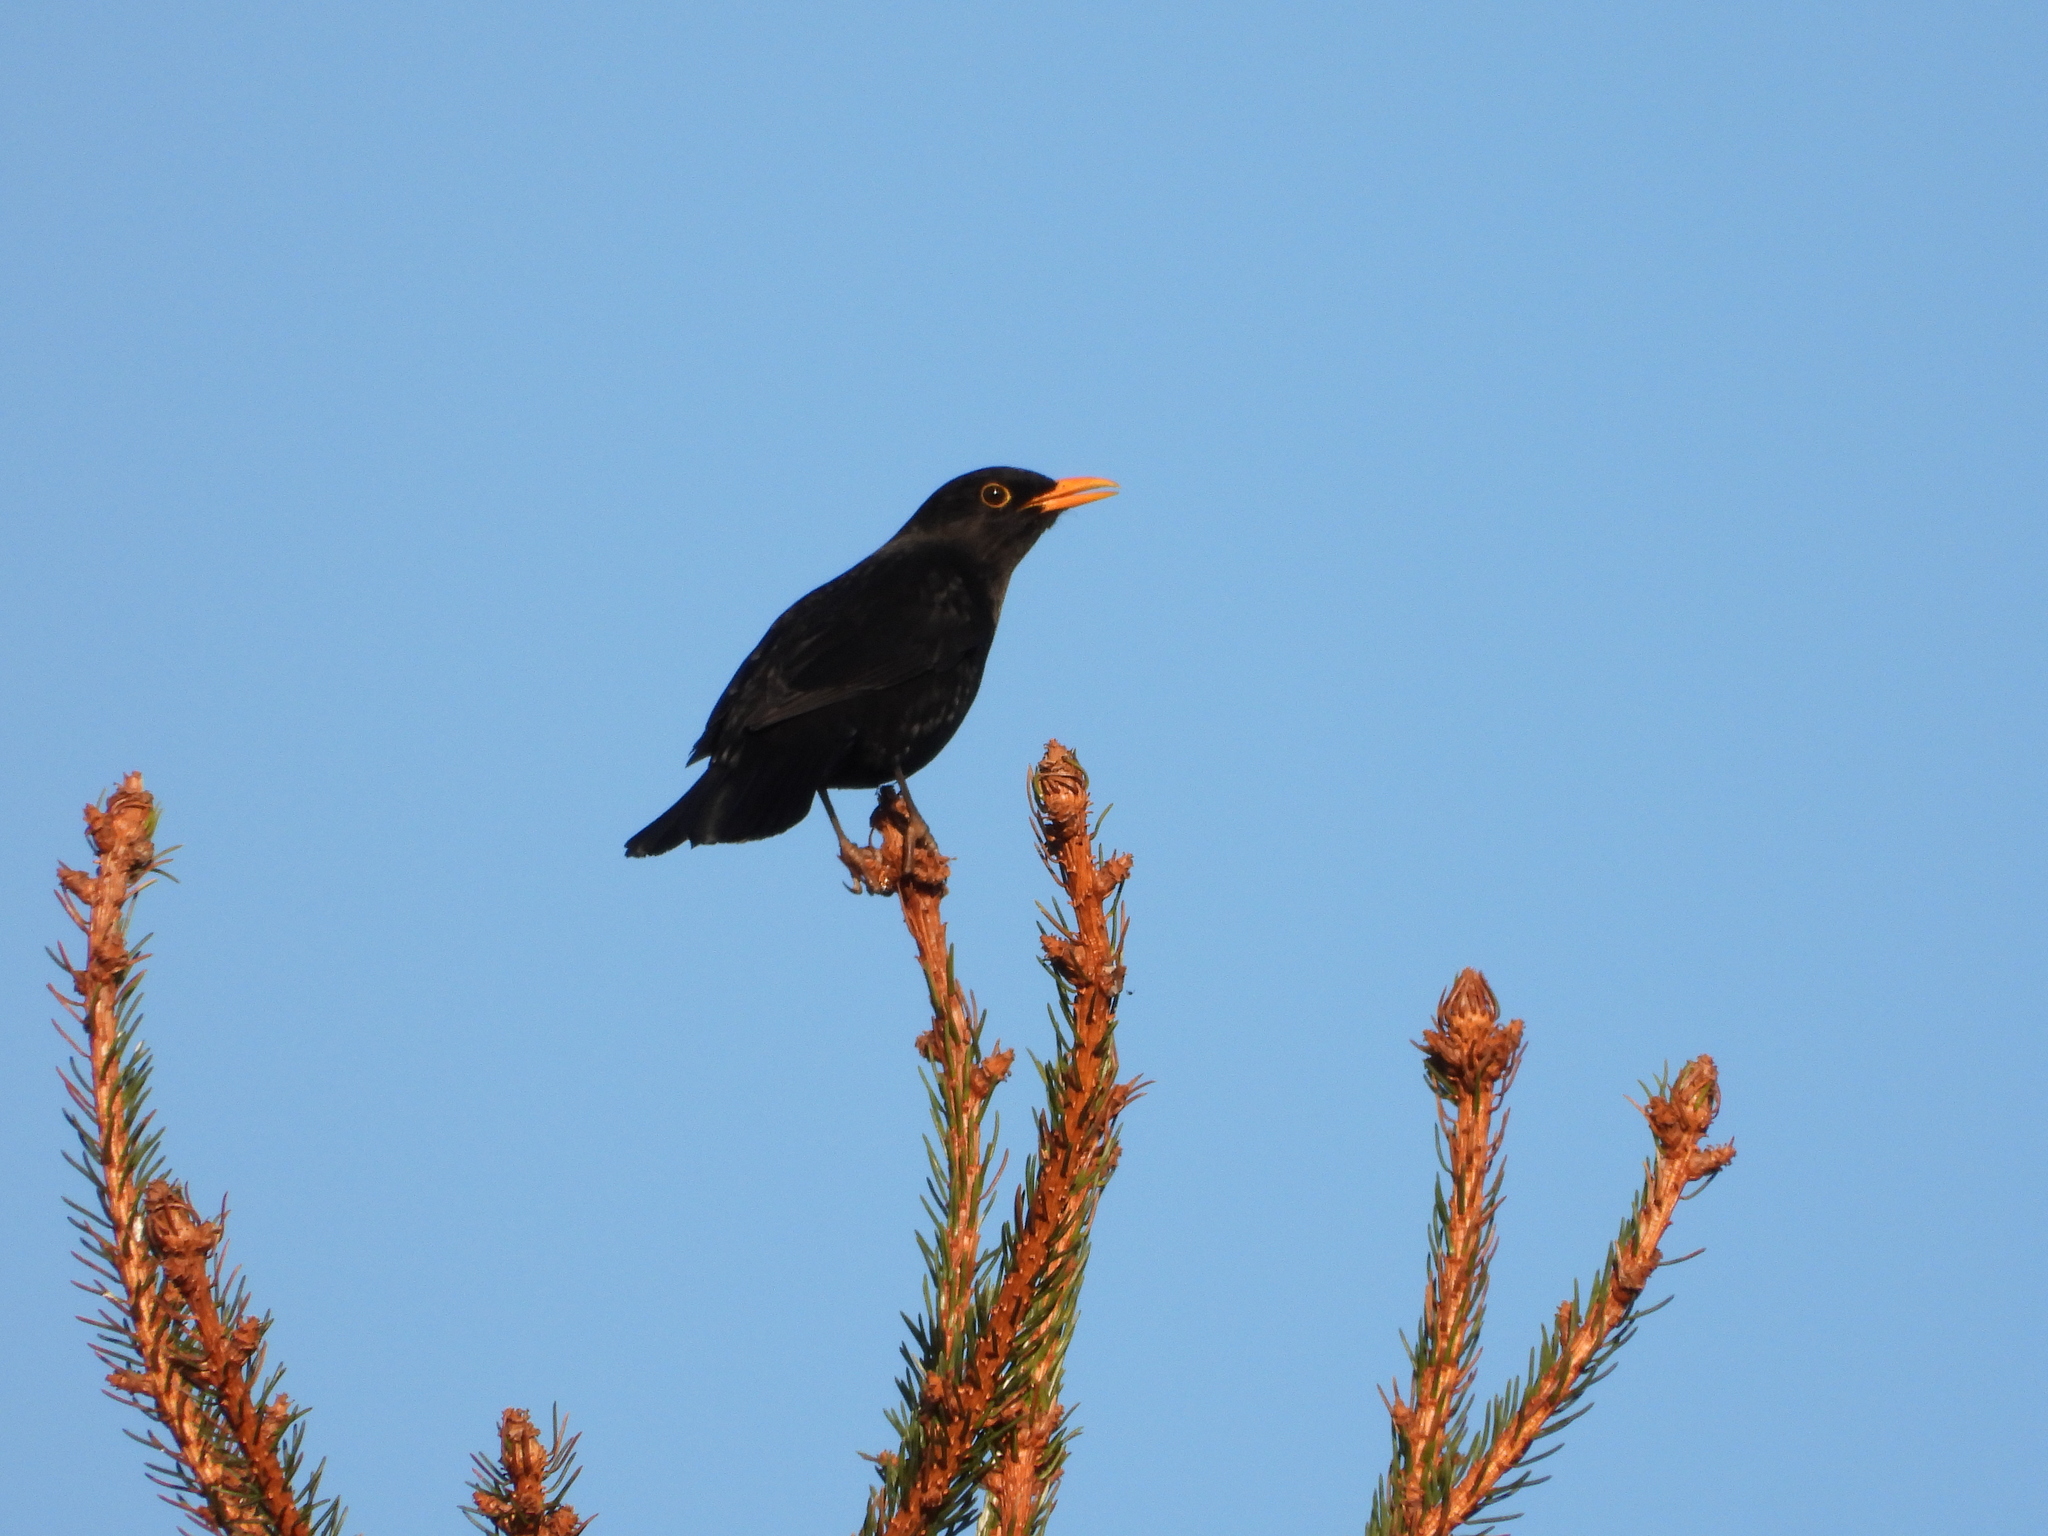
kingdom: Animalia
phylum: Chordata
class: Aves
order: Passeriformes
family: Turdidae
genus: Turdus
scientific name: Turdus merula
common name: Common blackbird
